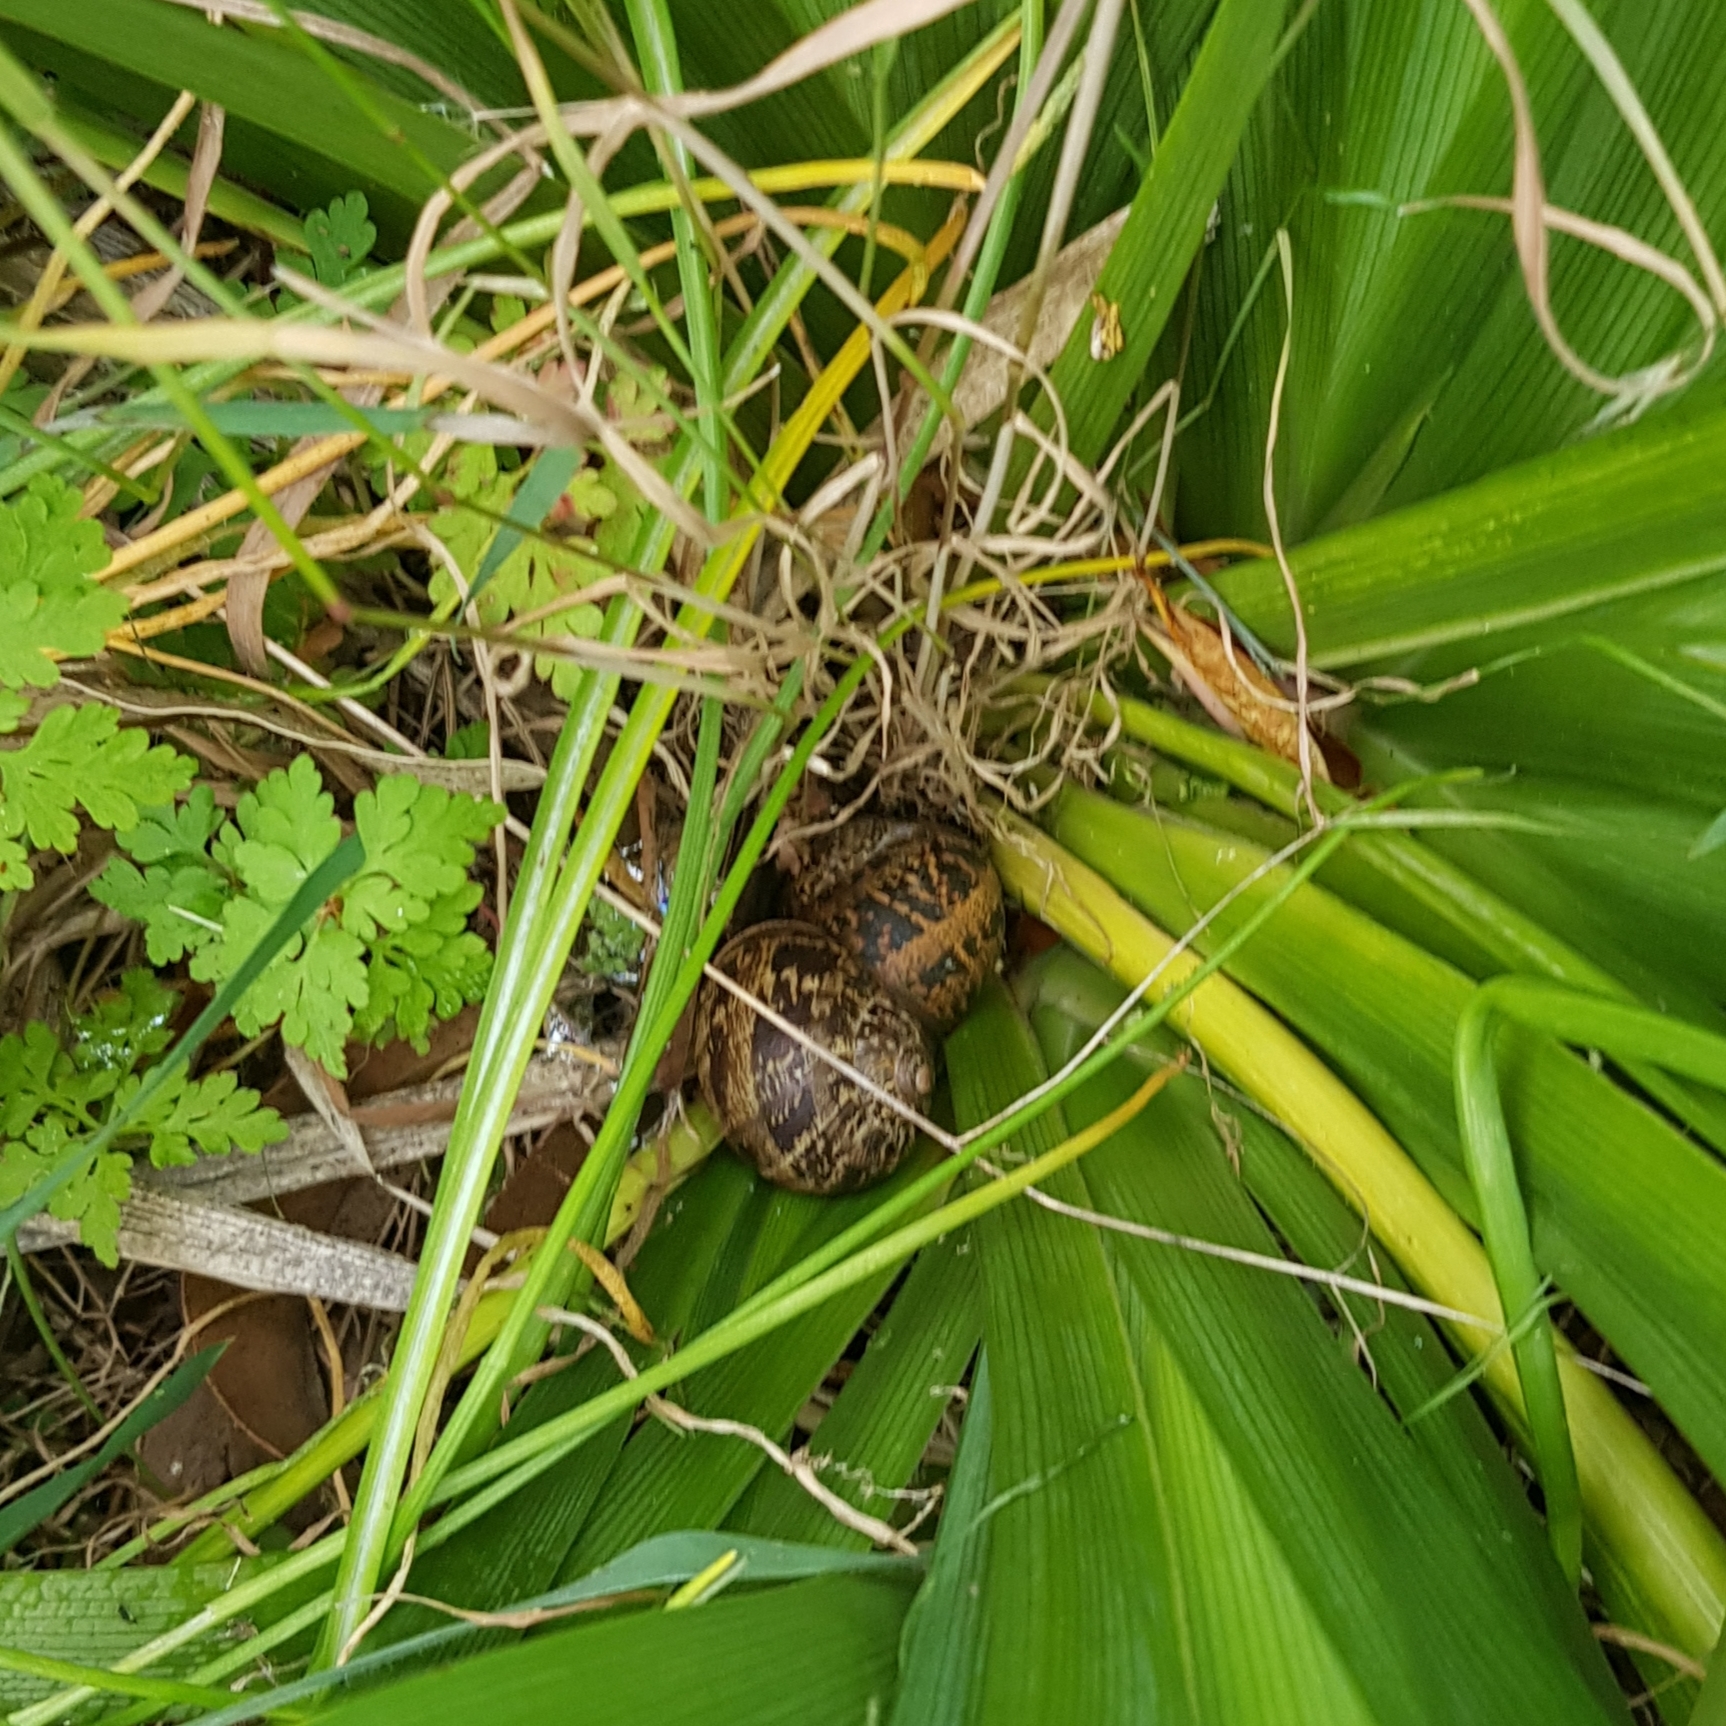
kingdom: Animalia
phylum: Mollusca
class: Gastropoda
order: Stylommatophora
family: Helicidae
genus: Cornu
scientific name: Cornu aspersum
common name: Brown garden snail
